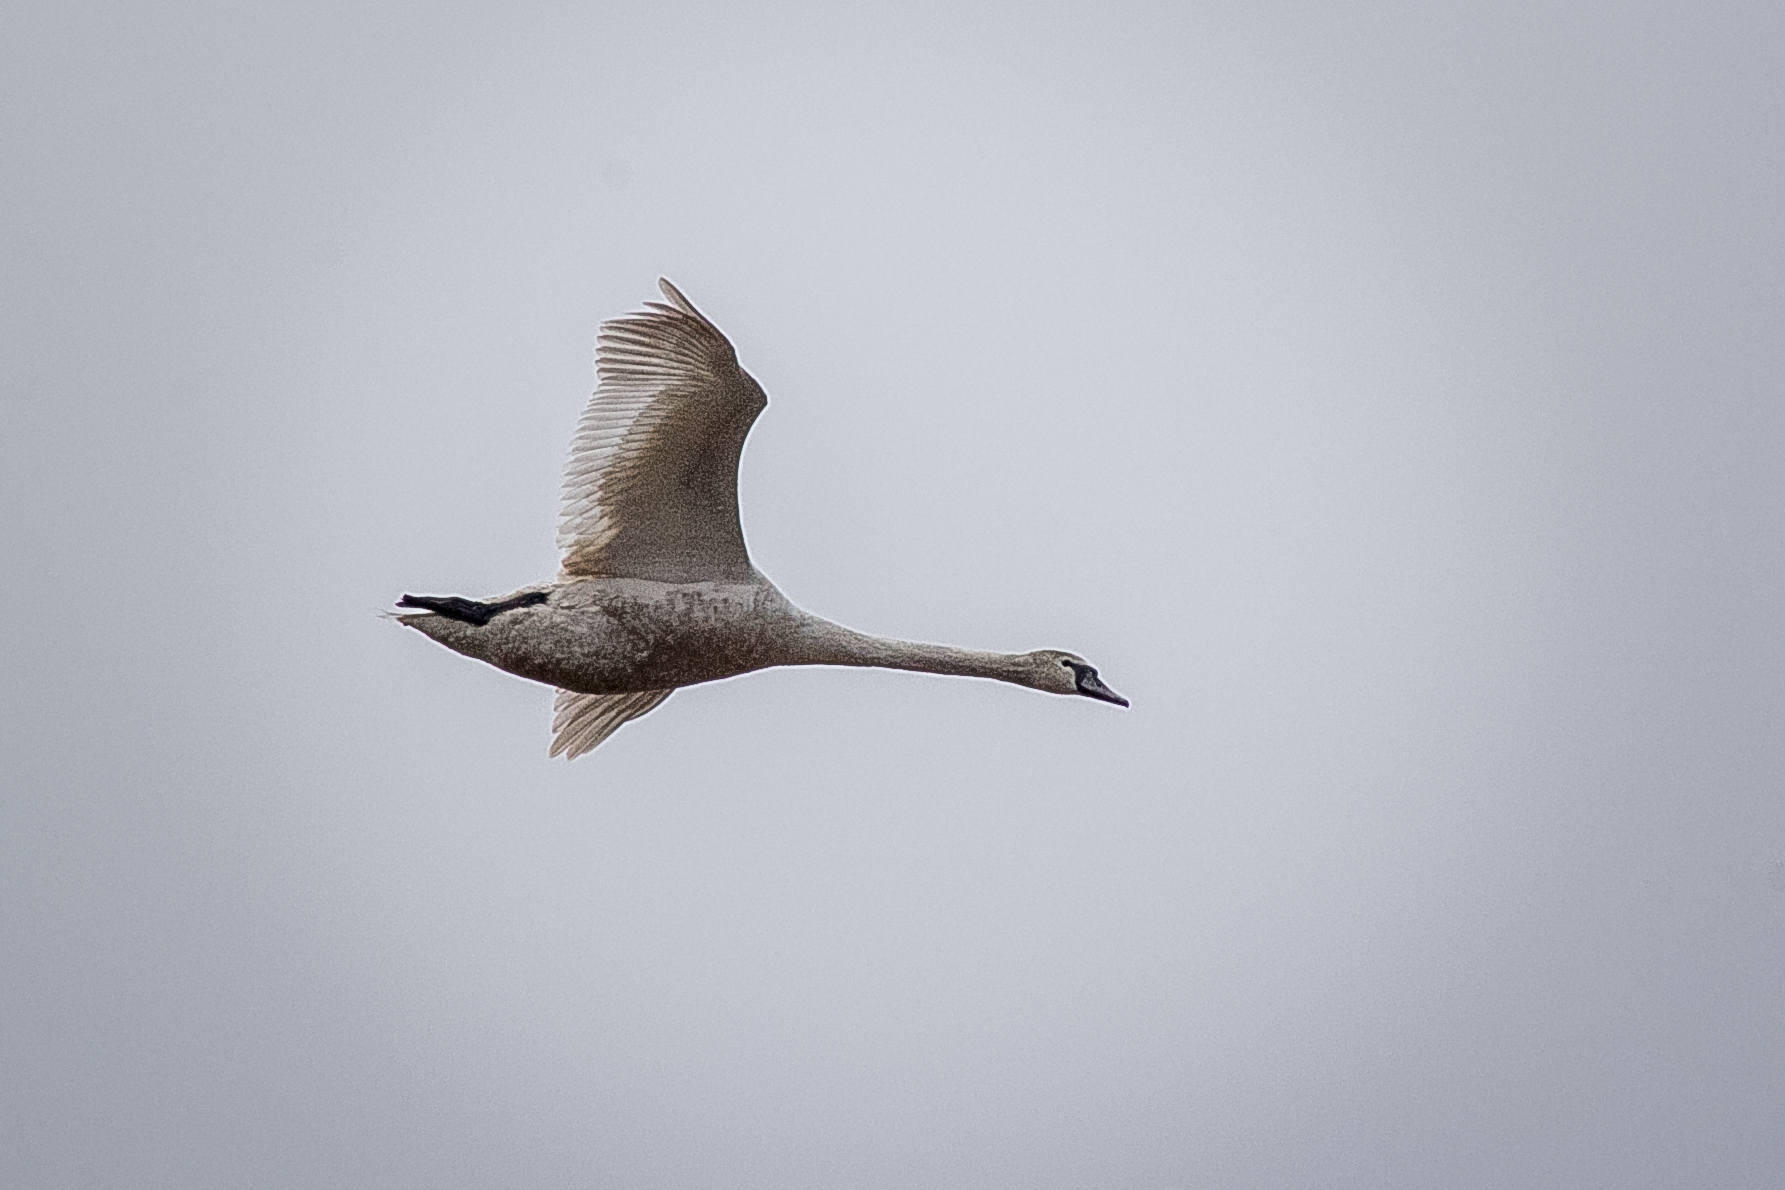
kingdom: Animalia
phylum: Chordata
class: Aves
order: Anseriformes
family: Anatidae
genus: Cygnus
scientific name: Cygnus olor
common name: Mute swan
